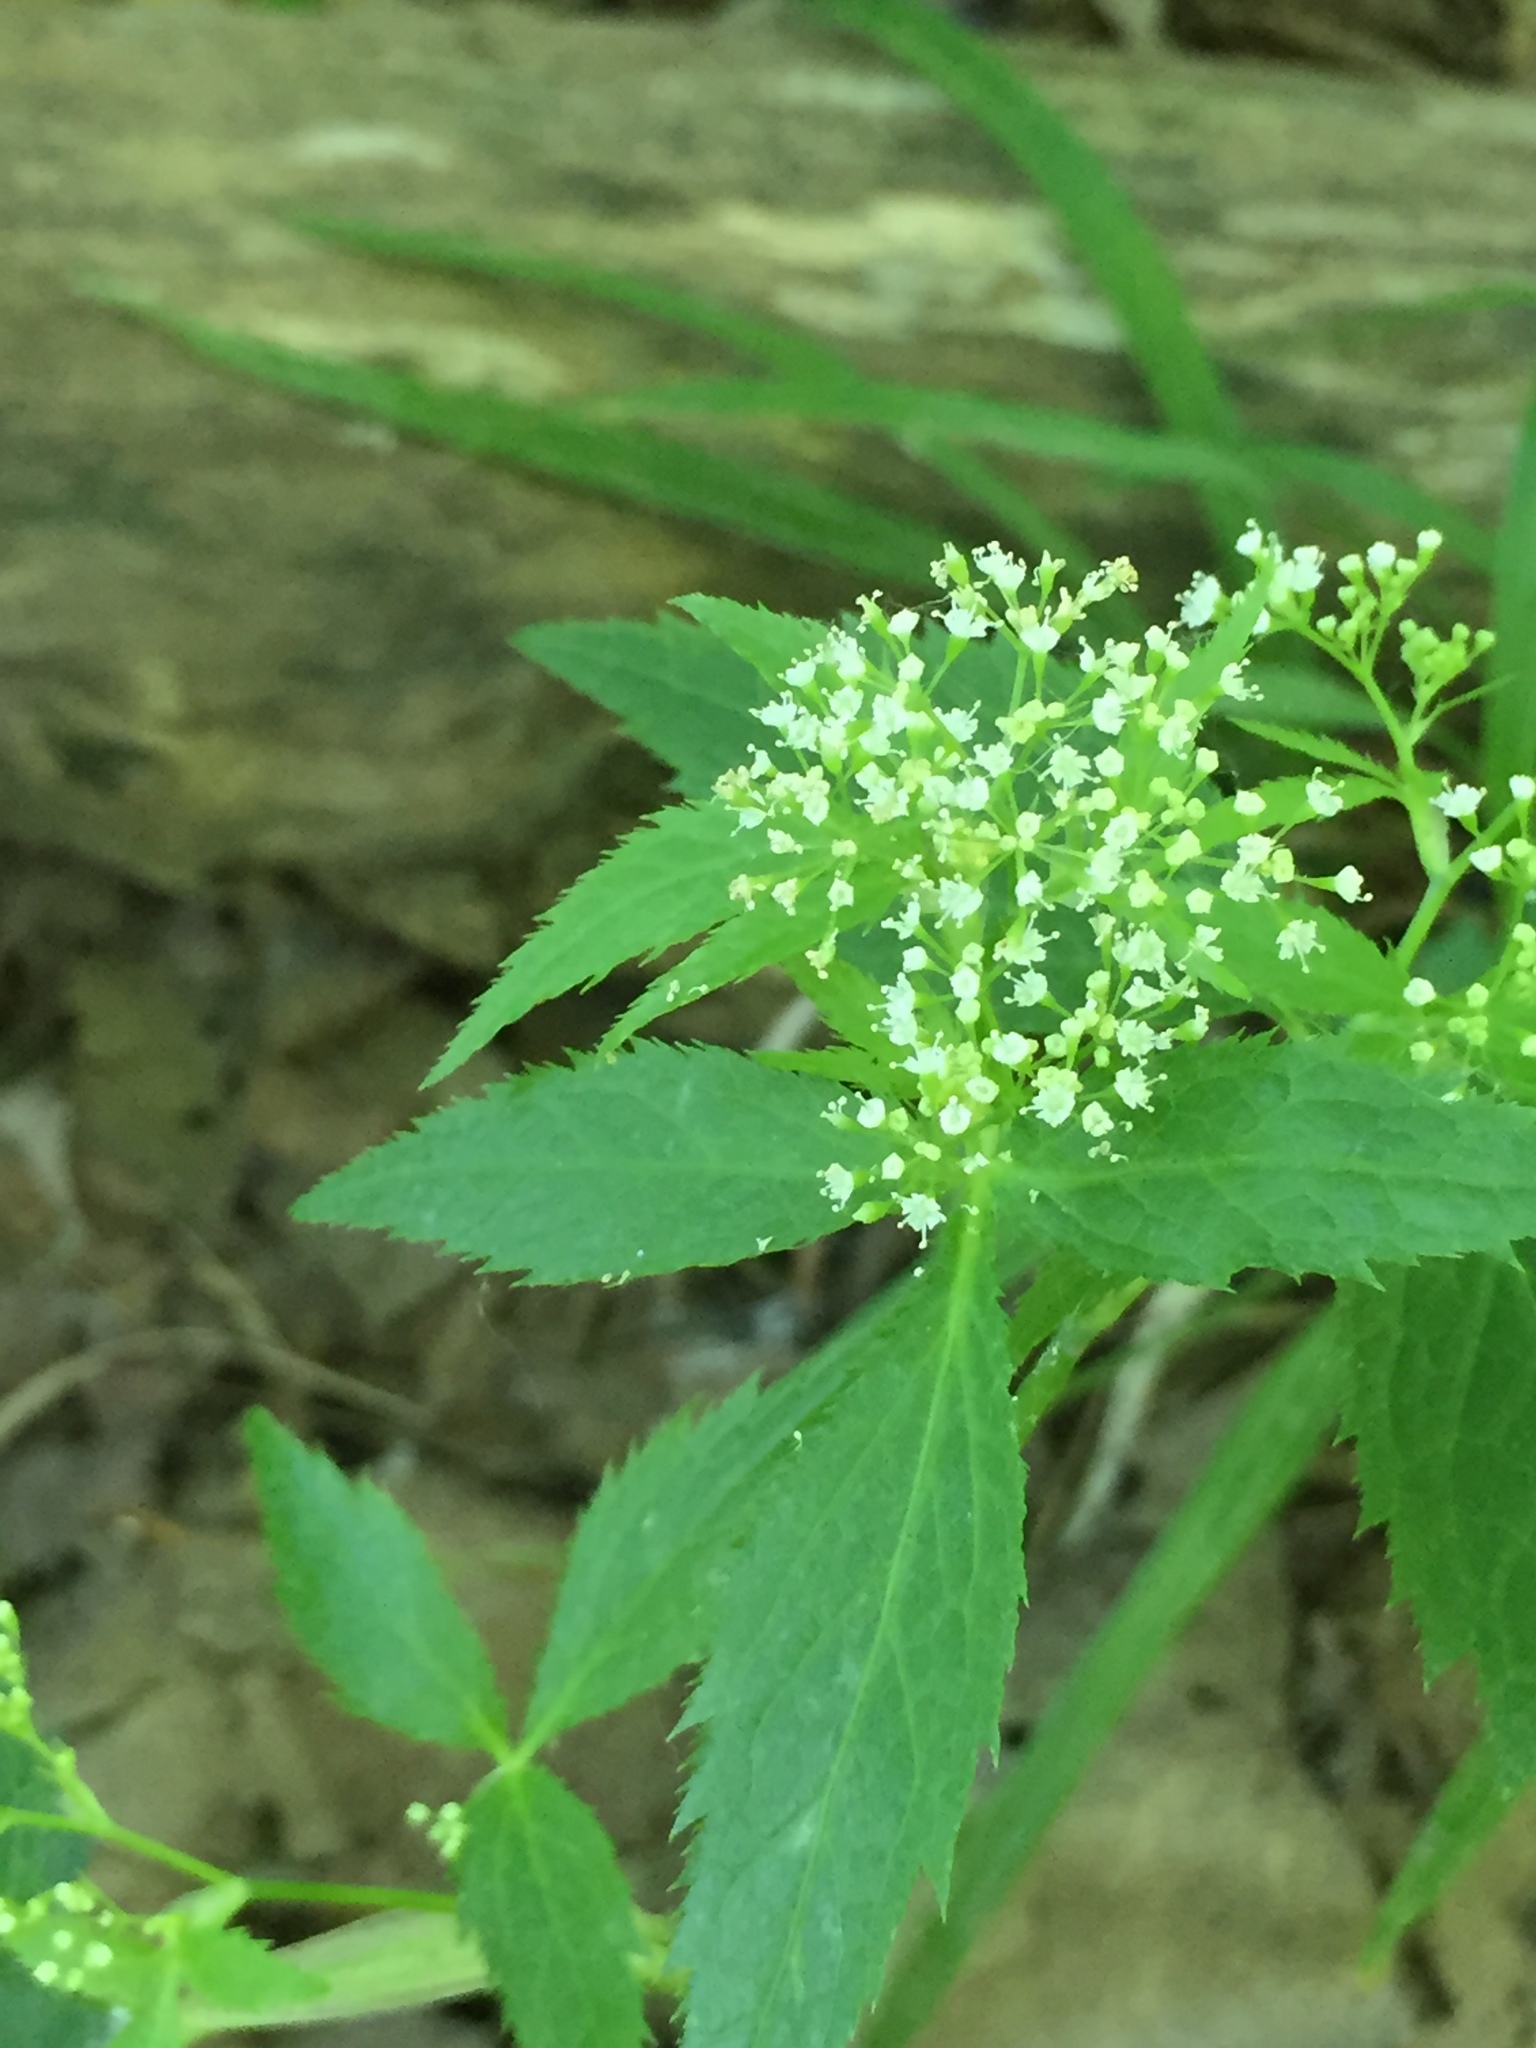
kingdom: Plantae
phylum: Tracheophyta
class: Magnoliopsida
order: Apiales
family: Apiaceae
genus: Cryptotaenia
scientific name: Cryptotaenia canadensis
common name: Honewort
